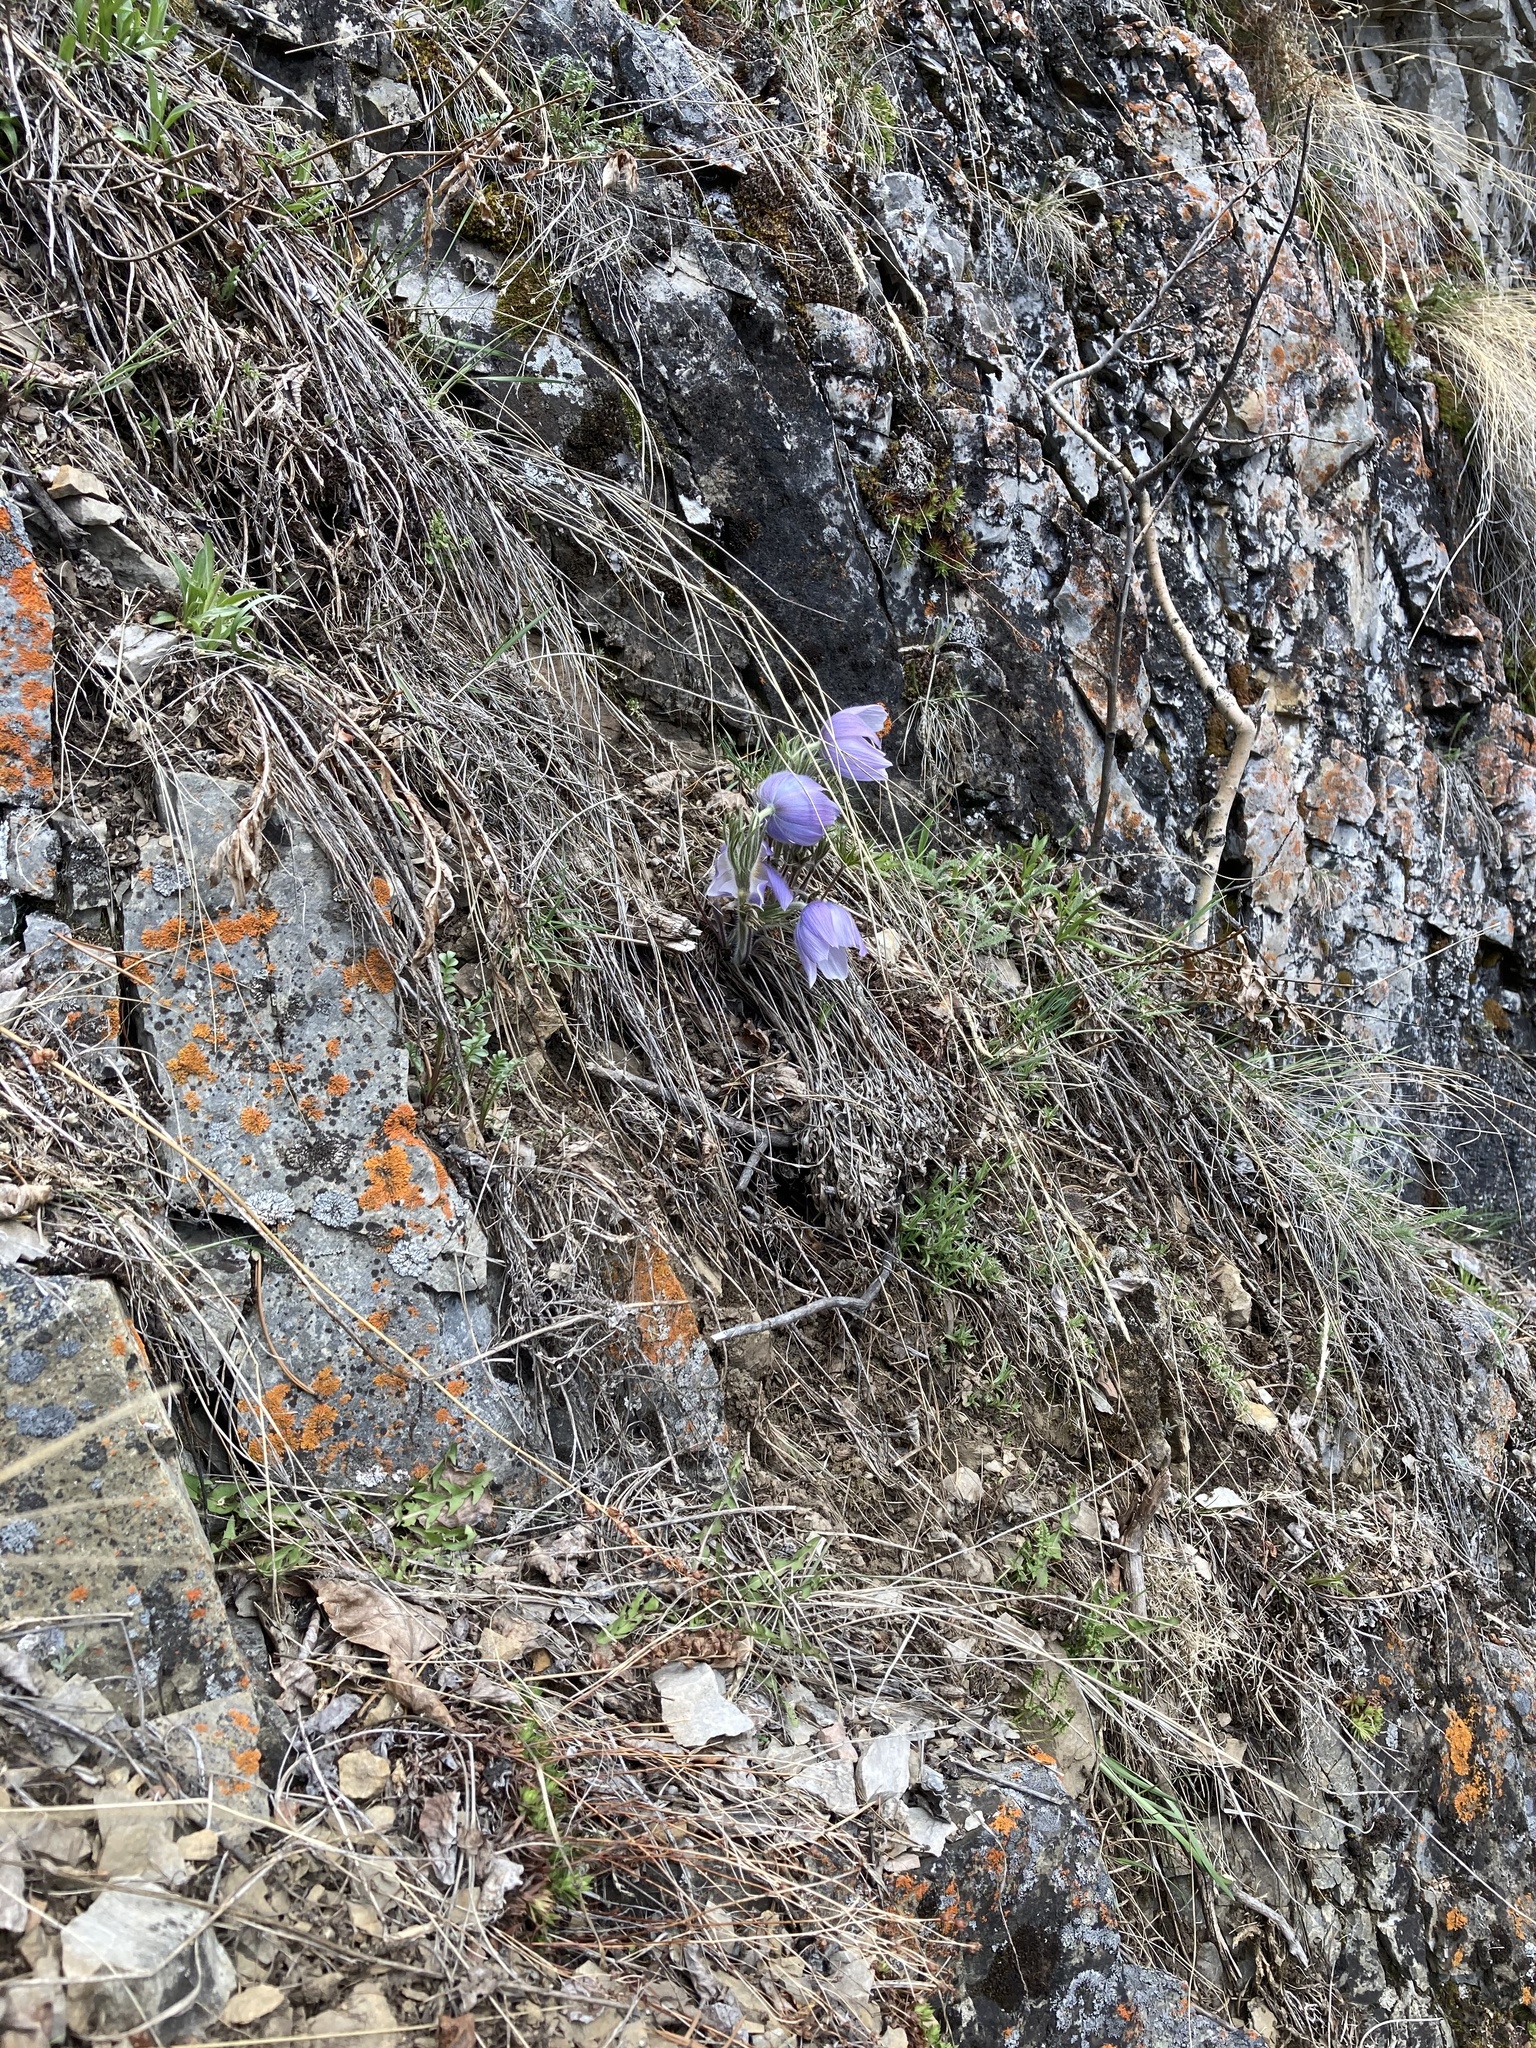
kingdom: Plantae
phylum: Tracheophyta
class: Magnoliopsida
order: Ranunculales
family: Ranunculaceae
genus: Pulsatilla
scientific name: Pulsatilla nuttalliana
